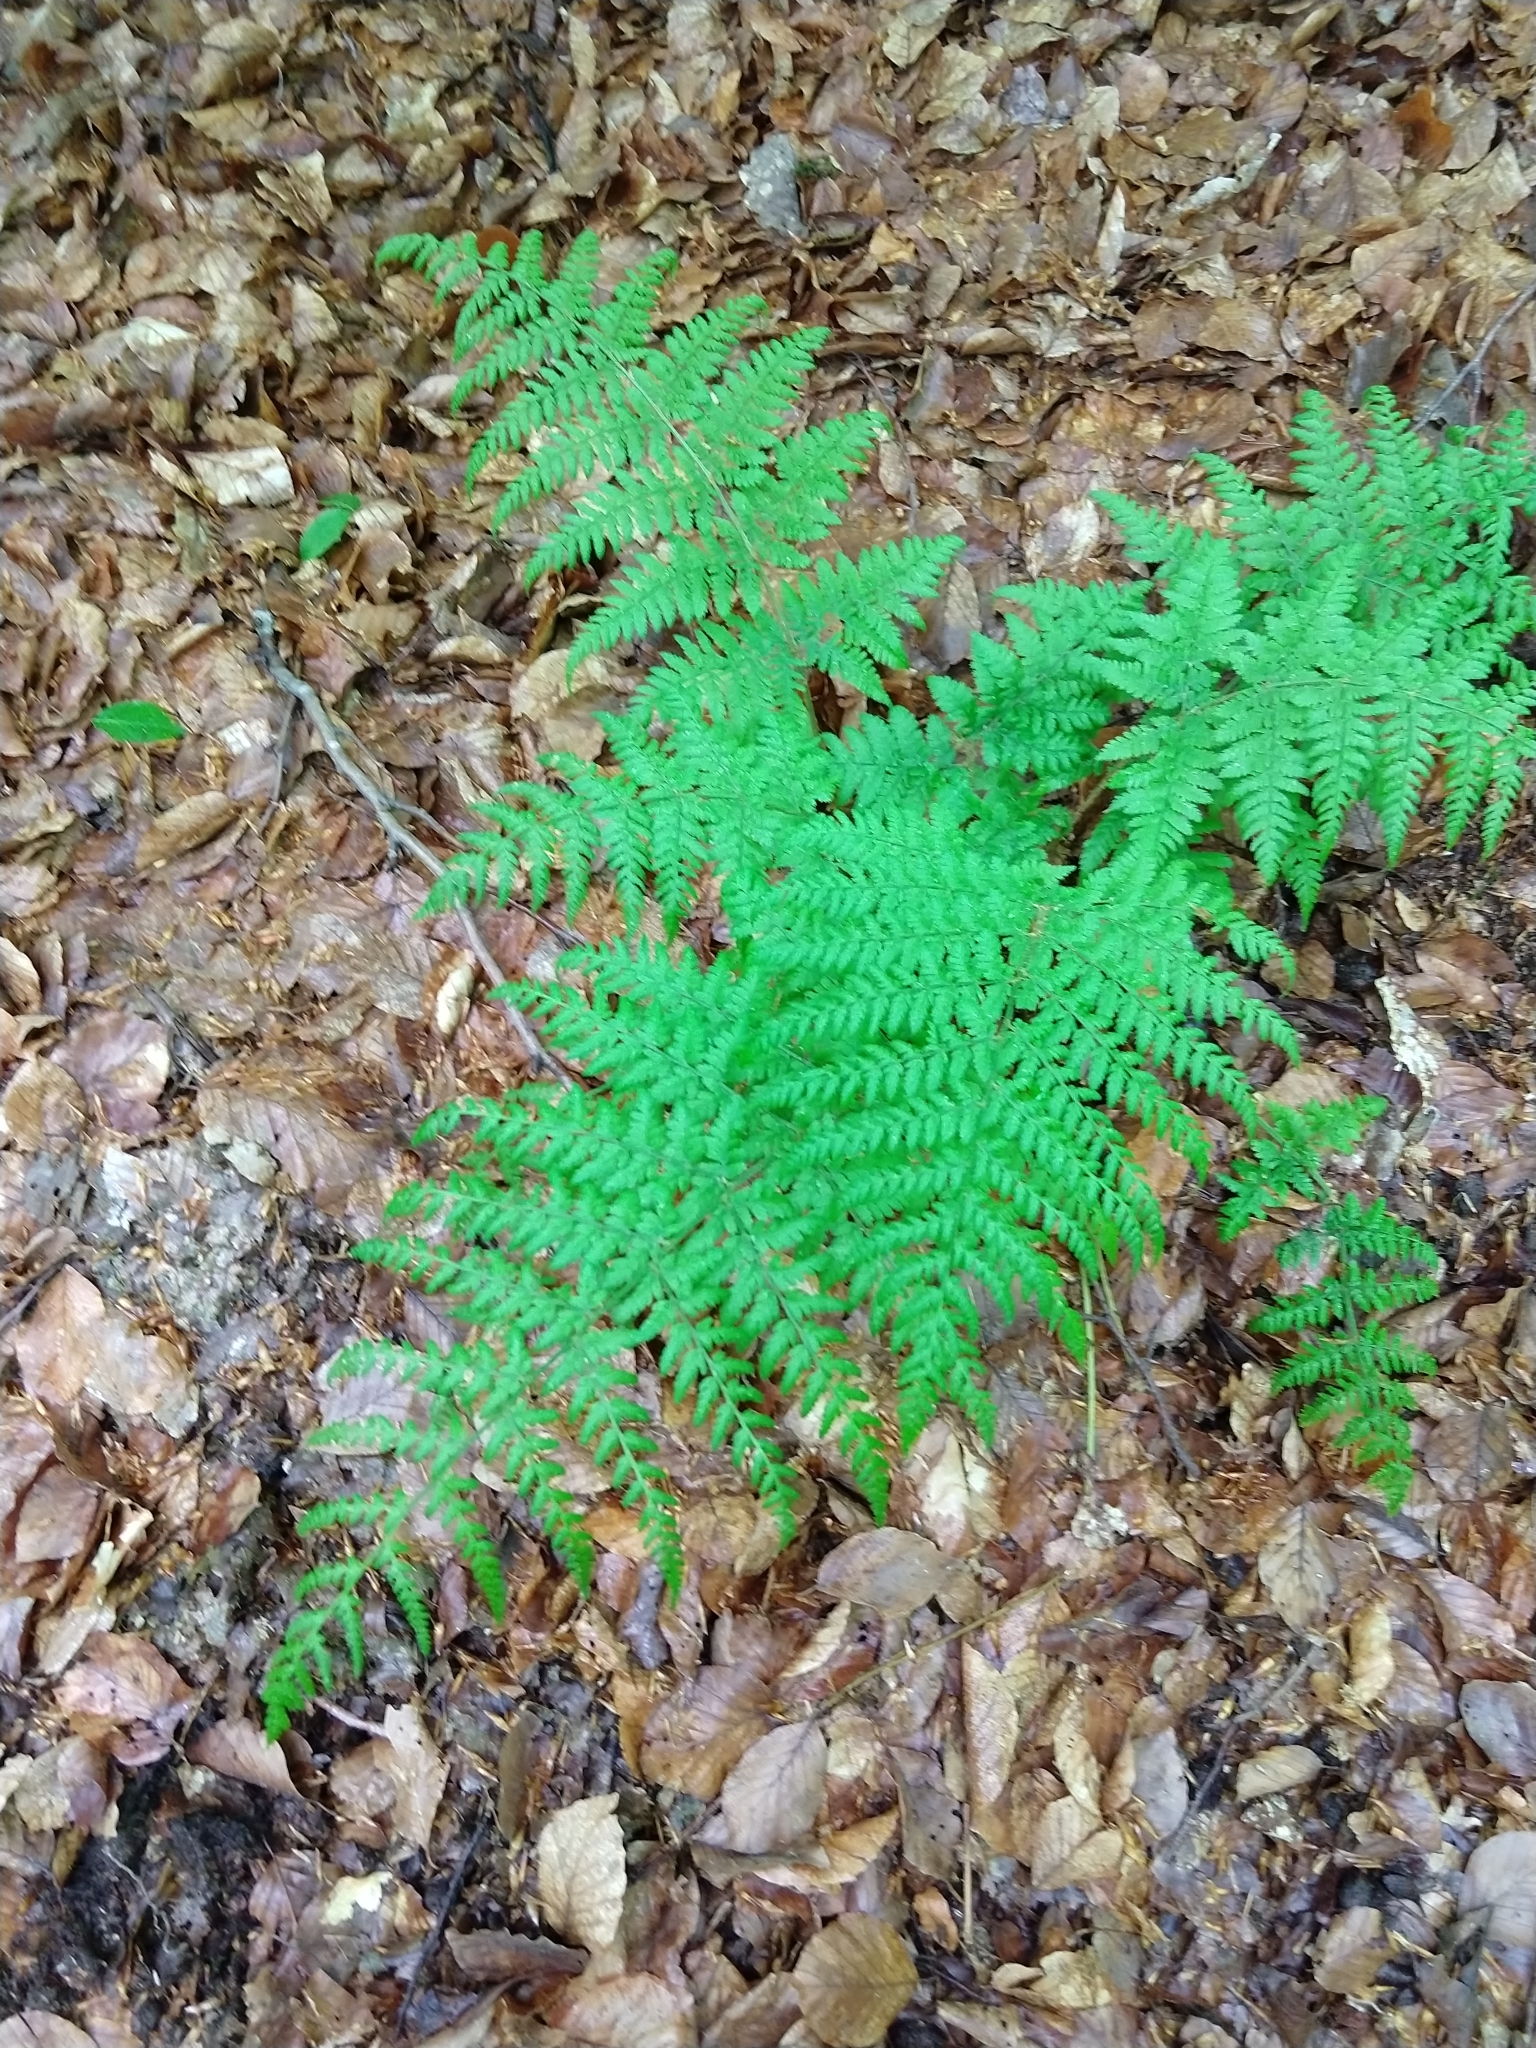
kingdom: Plantae
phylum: Tracheophyta
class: Polypodiopsida
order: Polypodiales
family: Dryopteridaceae
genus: Dryopteris
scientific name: Dryopteris dilatata
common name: Broad buckler-fern
